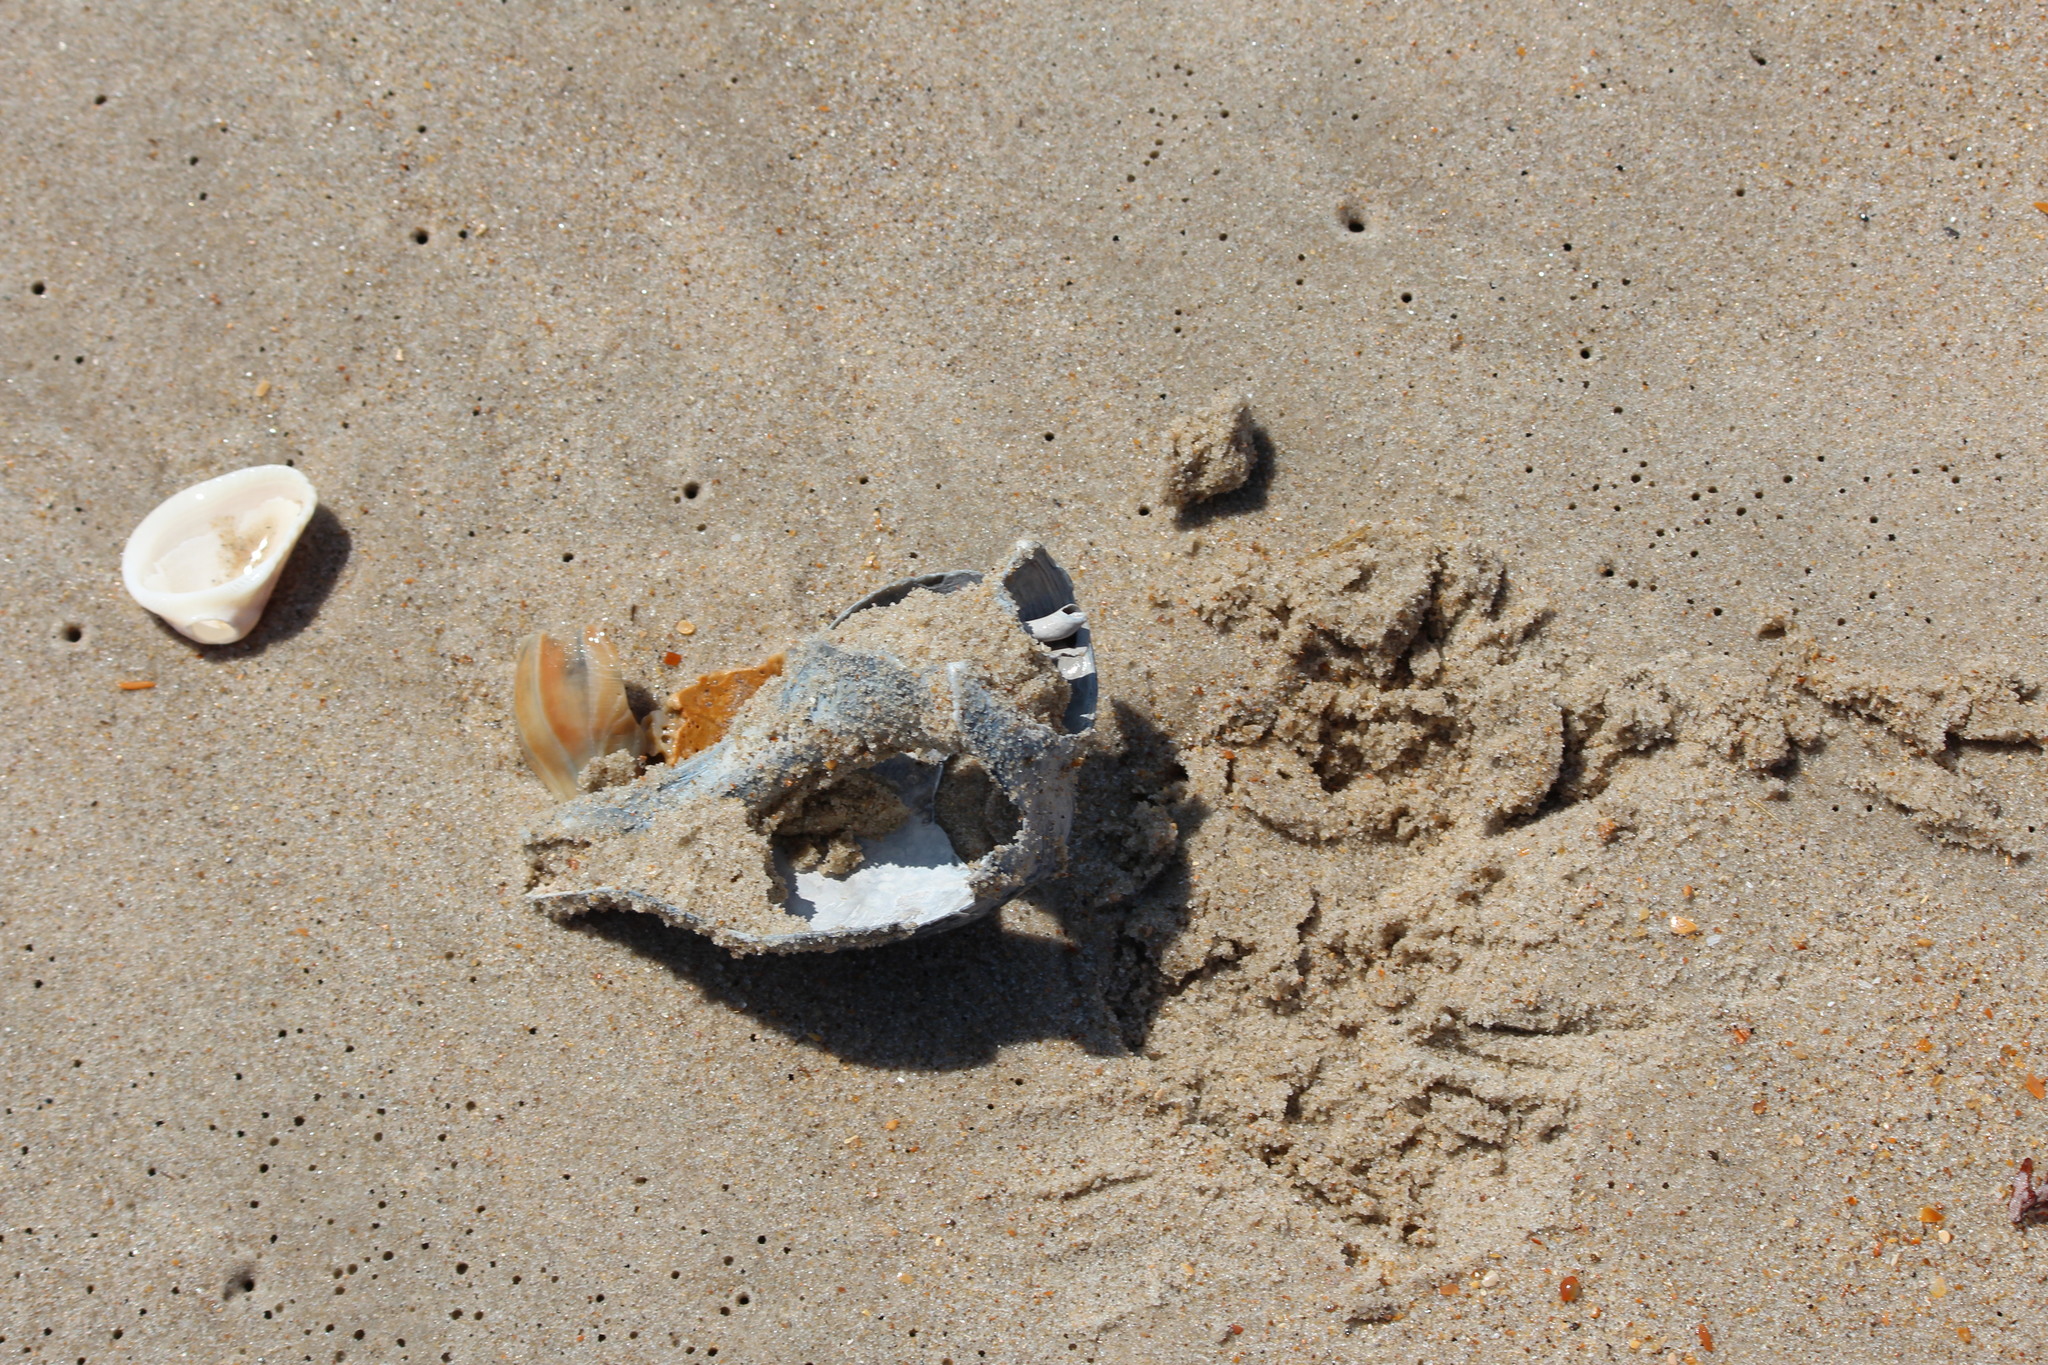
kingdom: Animalia
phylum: Mollusca
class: Gastropoda
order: Neogastropoda
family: Busyconidae
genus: Busycon
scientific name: Busycon carica
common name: Knobbed whelk
